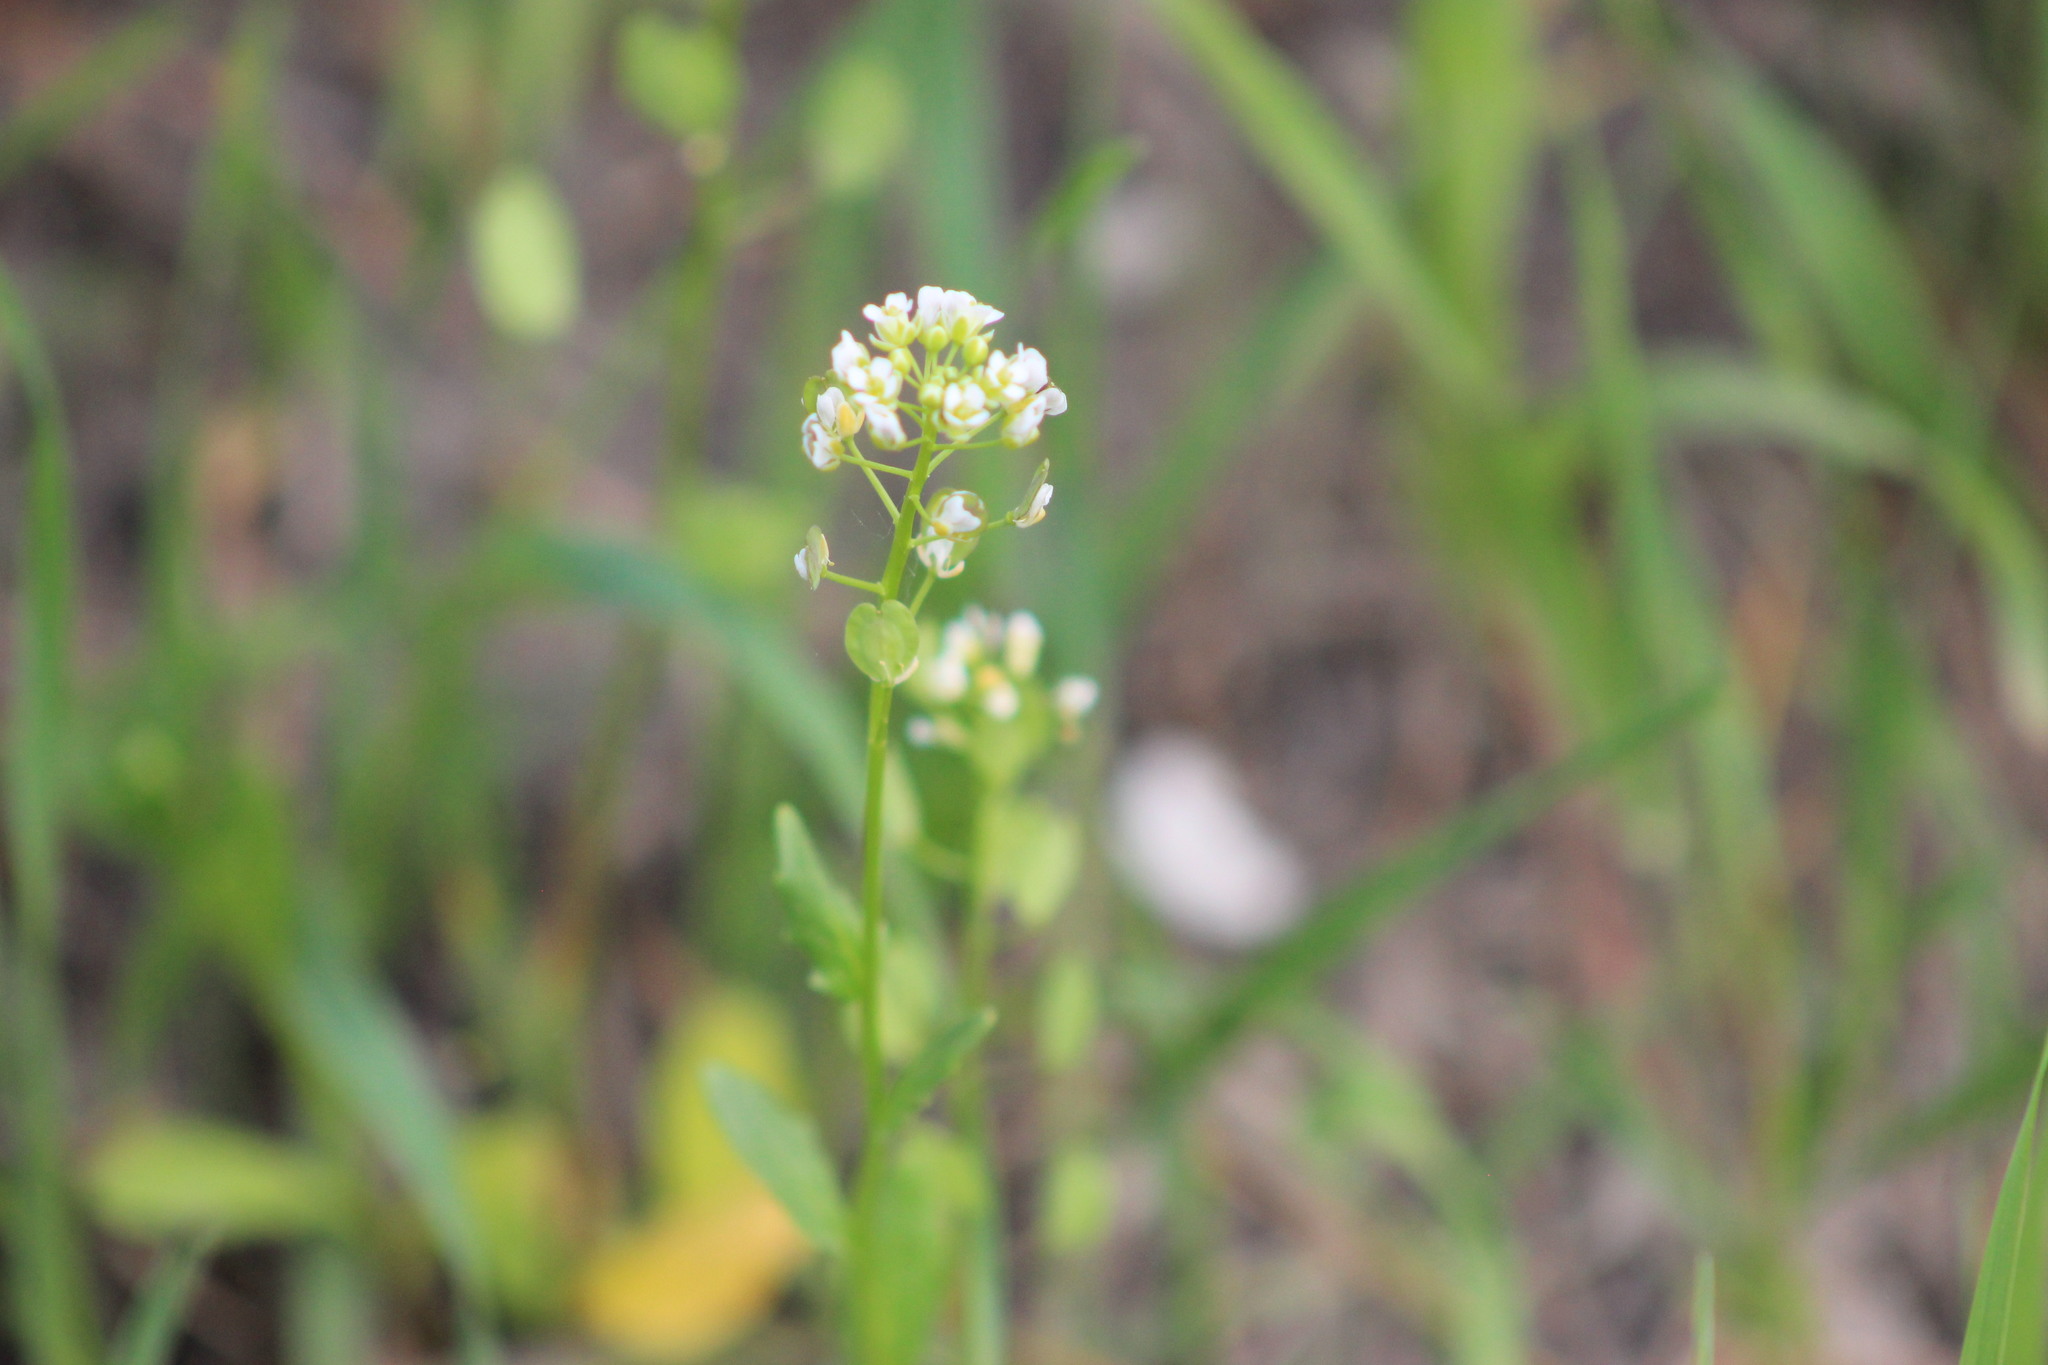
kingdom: Plantae
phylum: Tracheophyta
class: Magnoliopsida
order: Brassicales
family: Brassicaceae
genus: Thlaspi
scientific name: Thlaspi arvense
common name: Field pennycress
